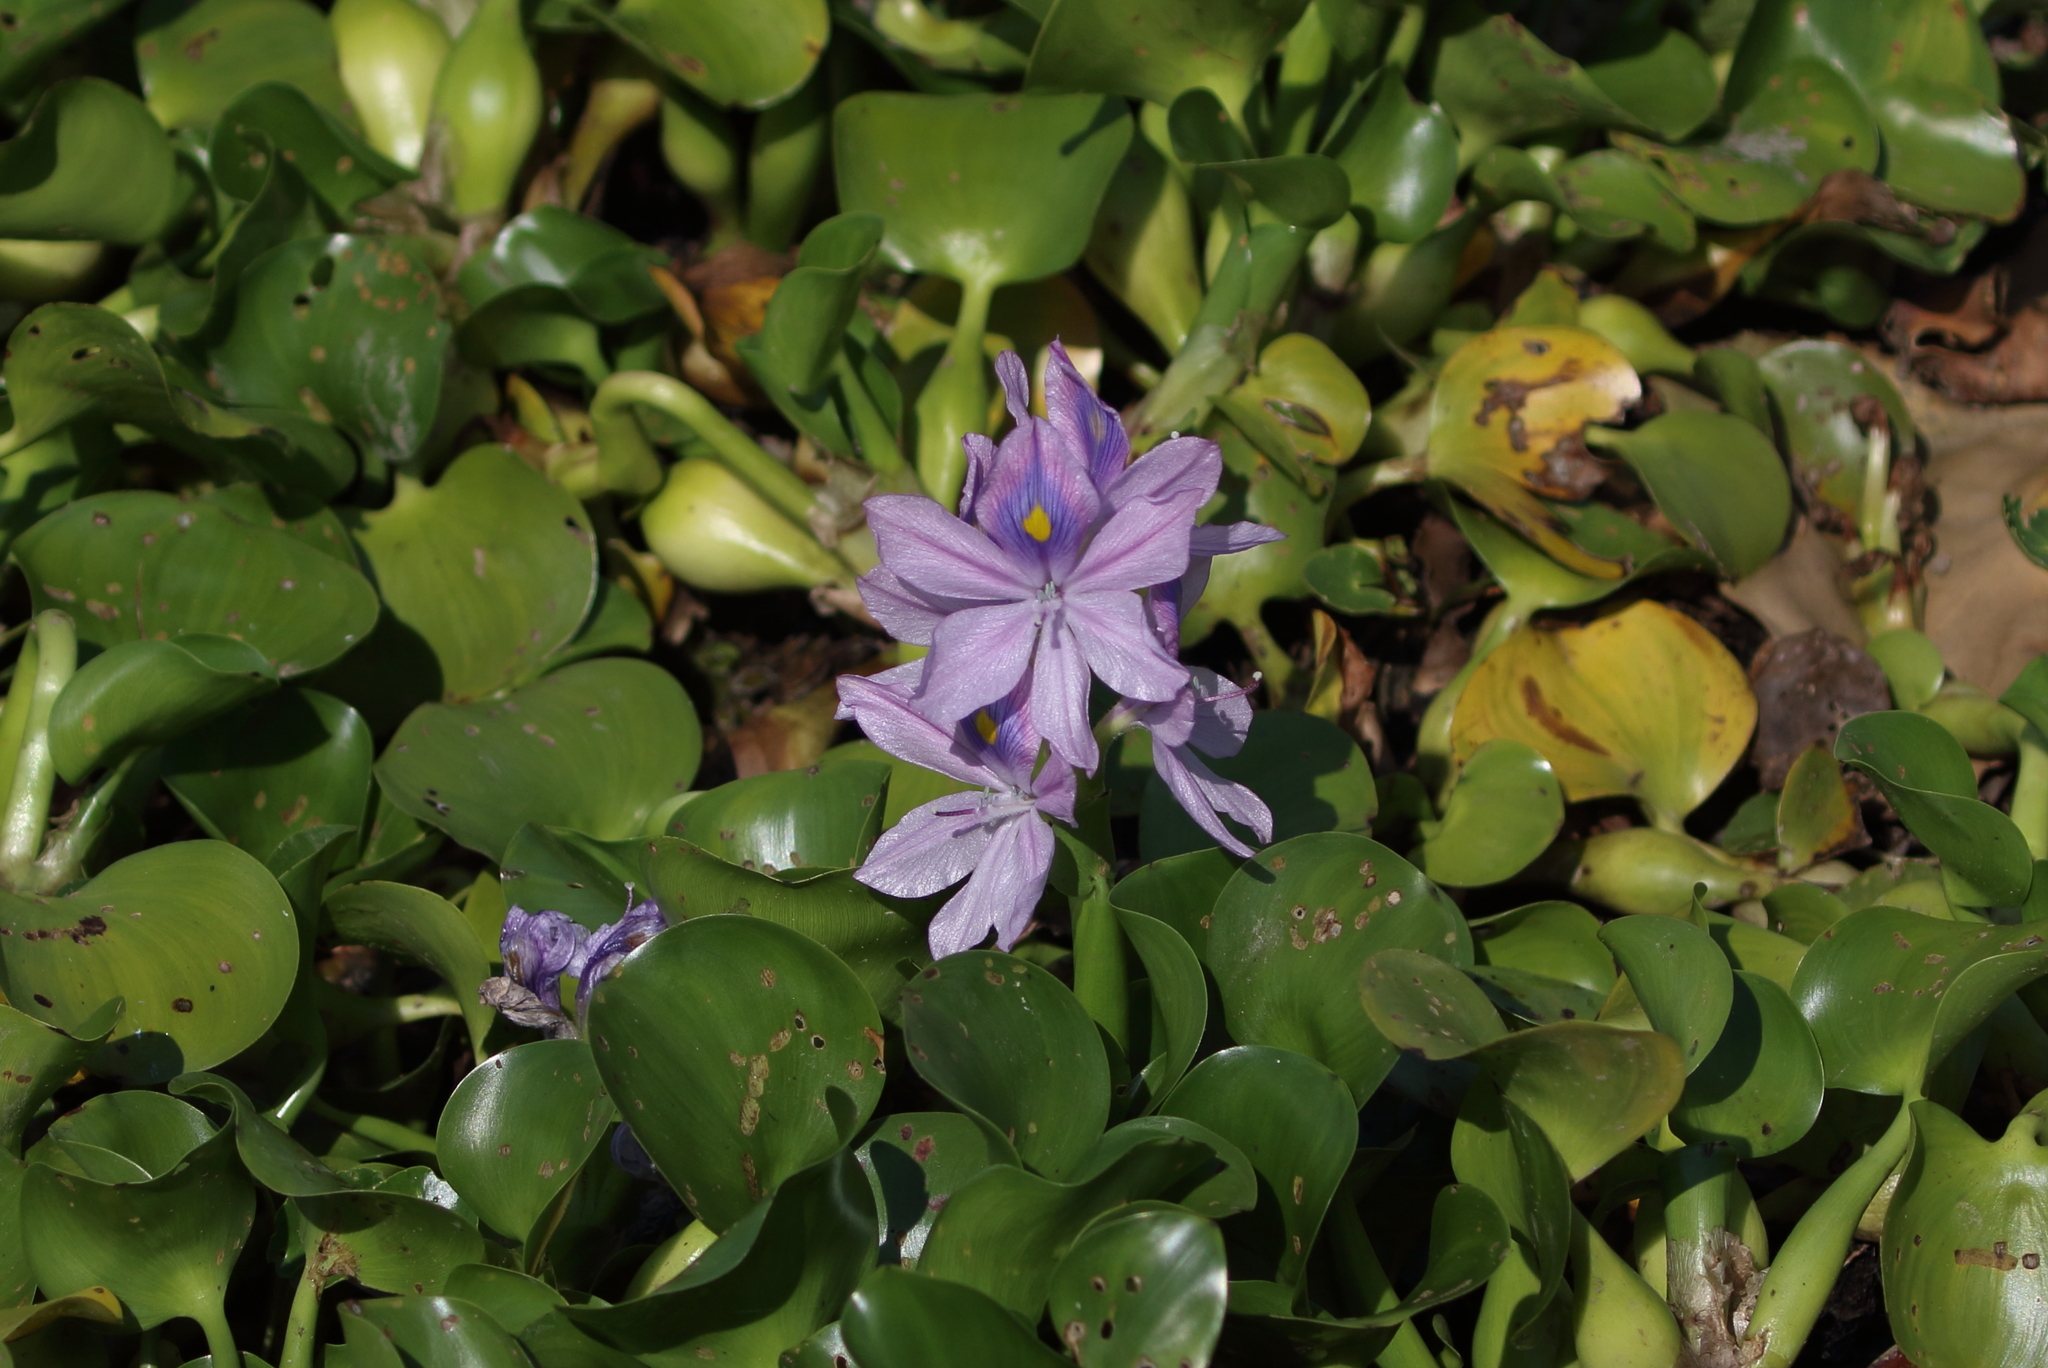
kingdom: Plantae
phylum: Tracheophyta
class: Liliopsida
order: Commelinales
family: Pontederiaceae
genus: Pontederia
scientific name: Pontederia crassipes
